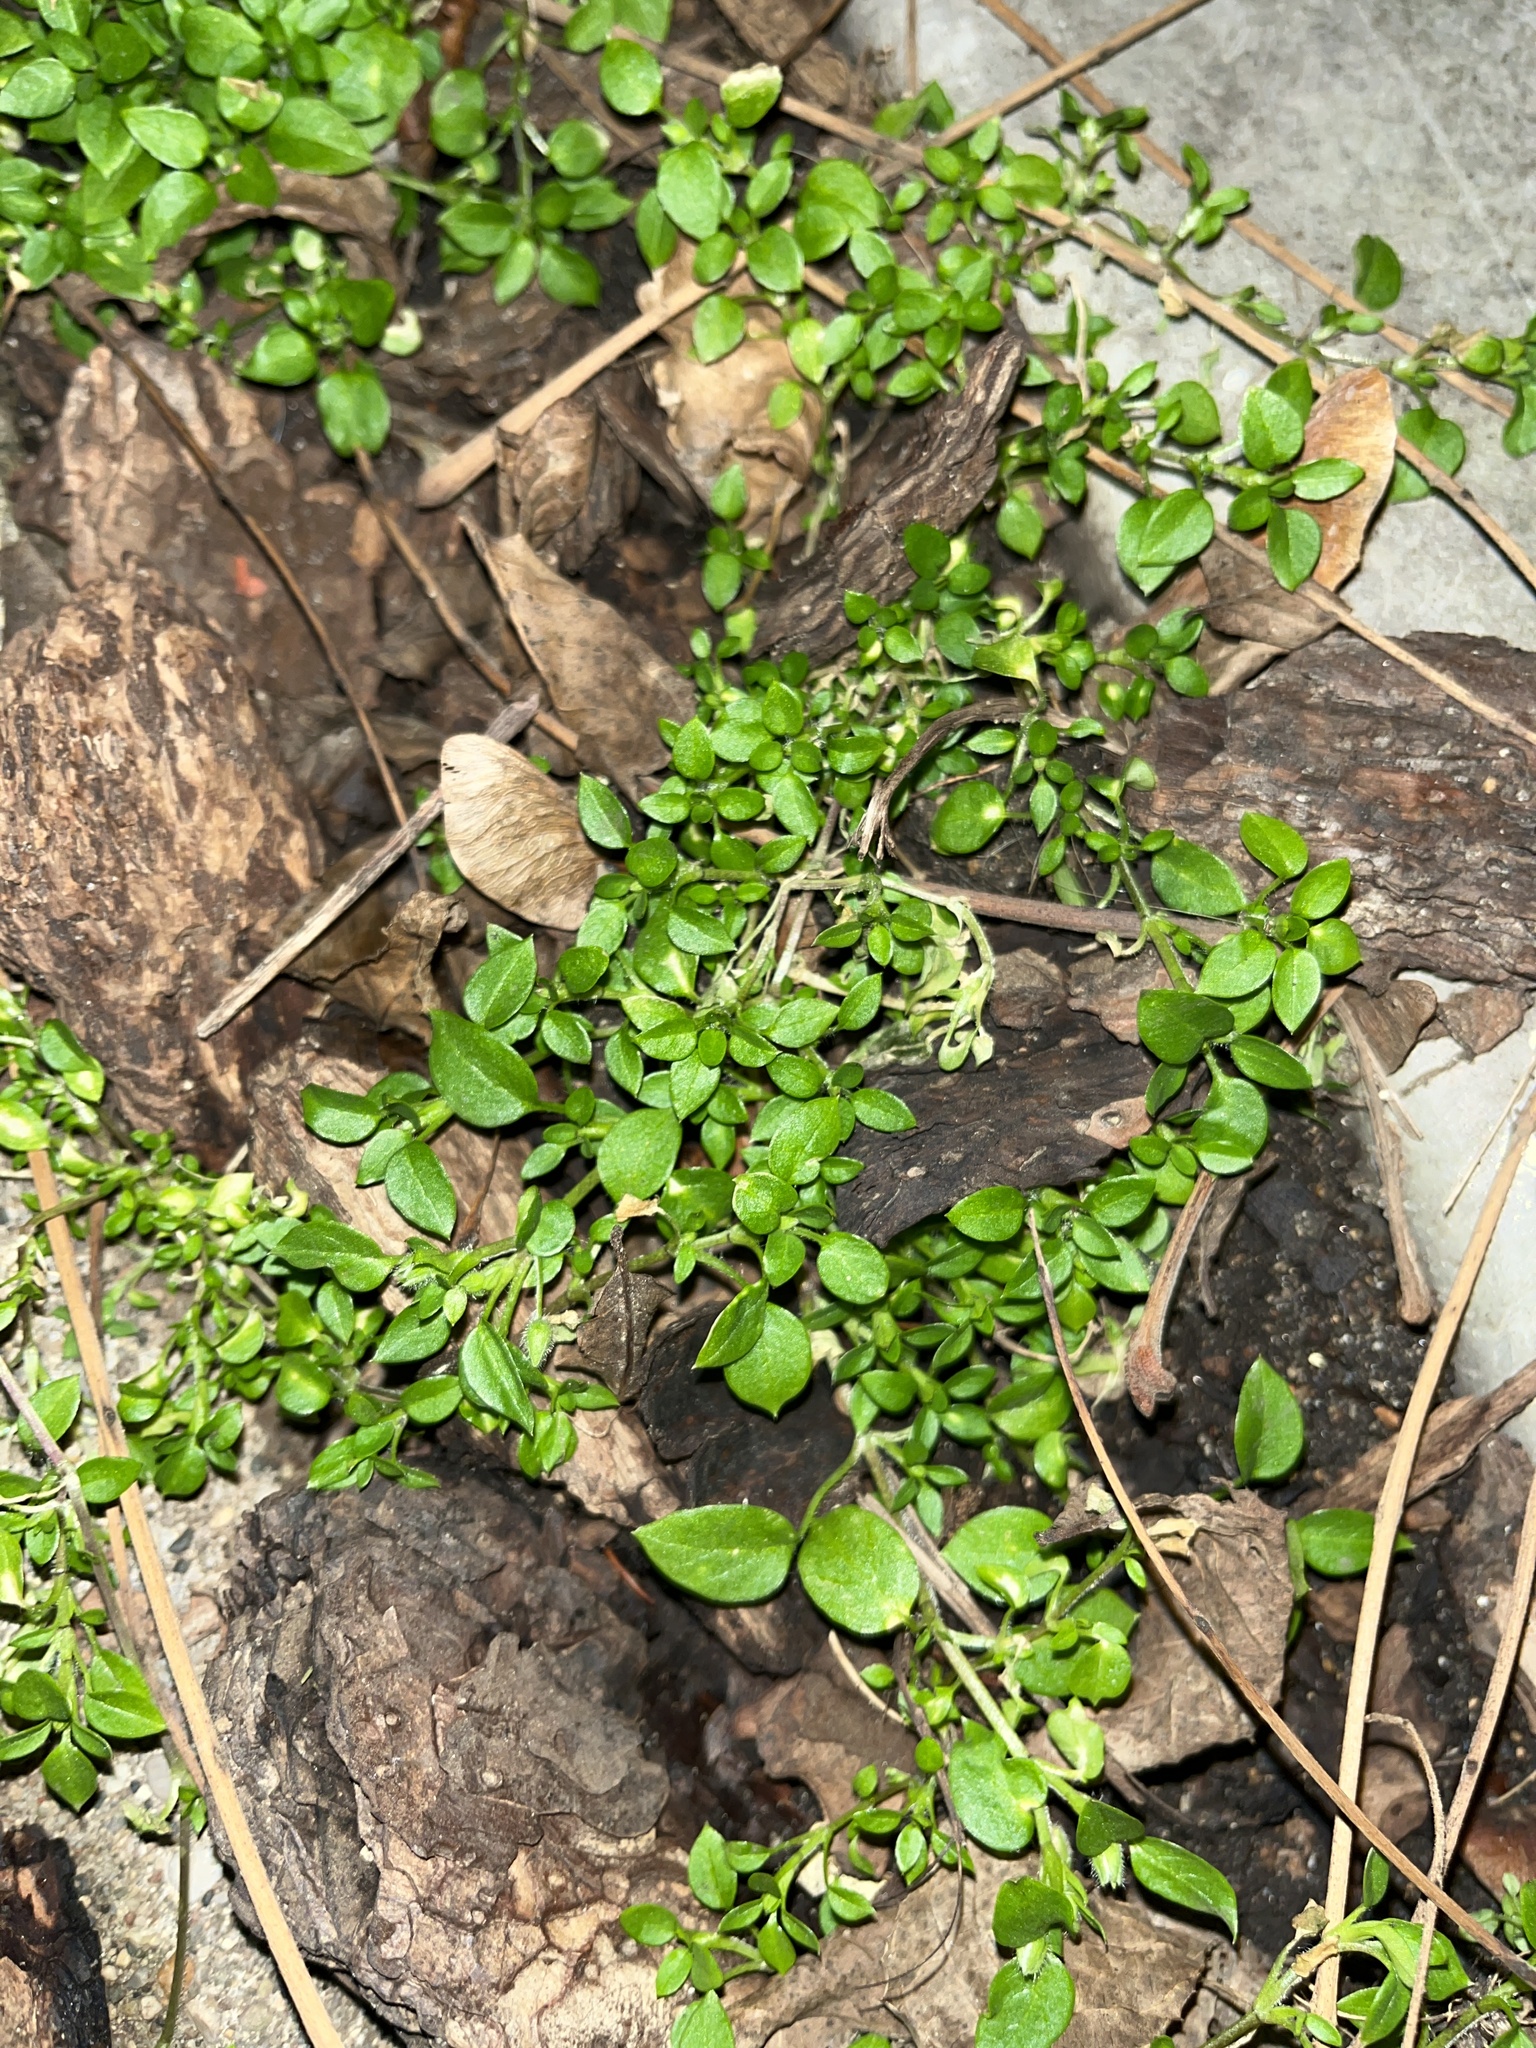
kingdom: Plantae
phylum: Tracheophyta
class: Magnoliopsida
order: Caryophyllales
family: Caryophyllaceae
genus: Stellaria
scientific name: Stellaria media
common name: Common chickweed
